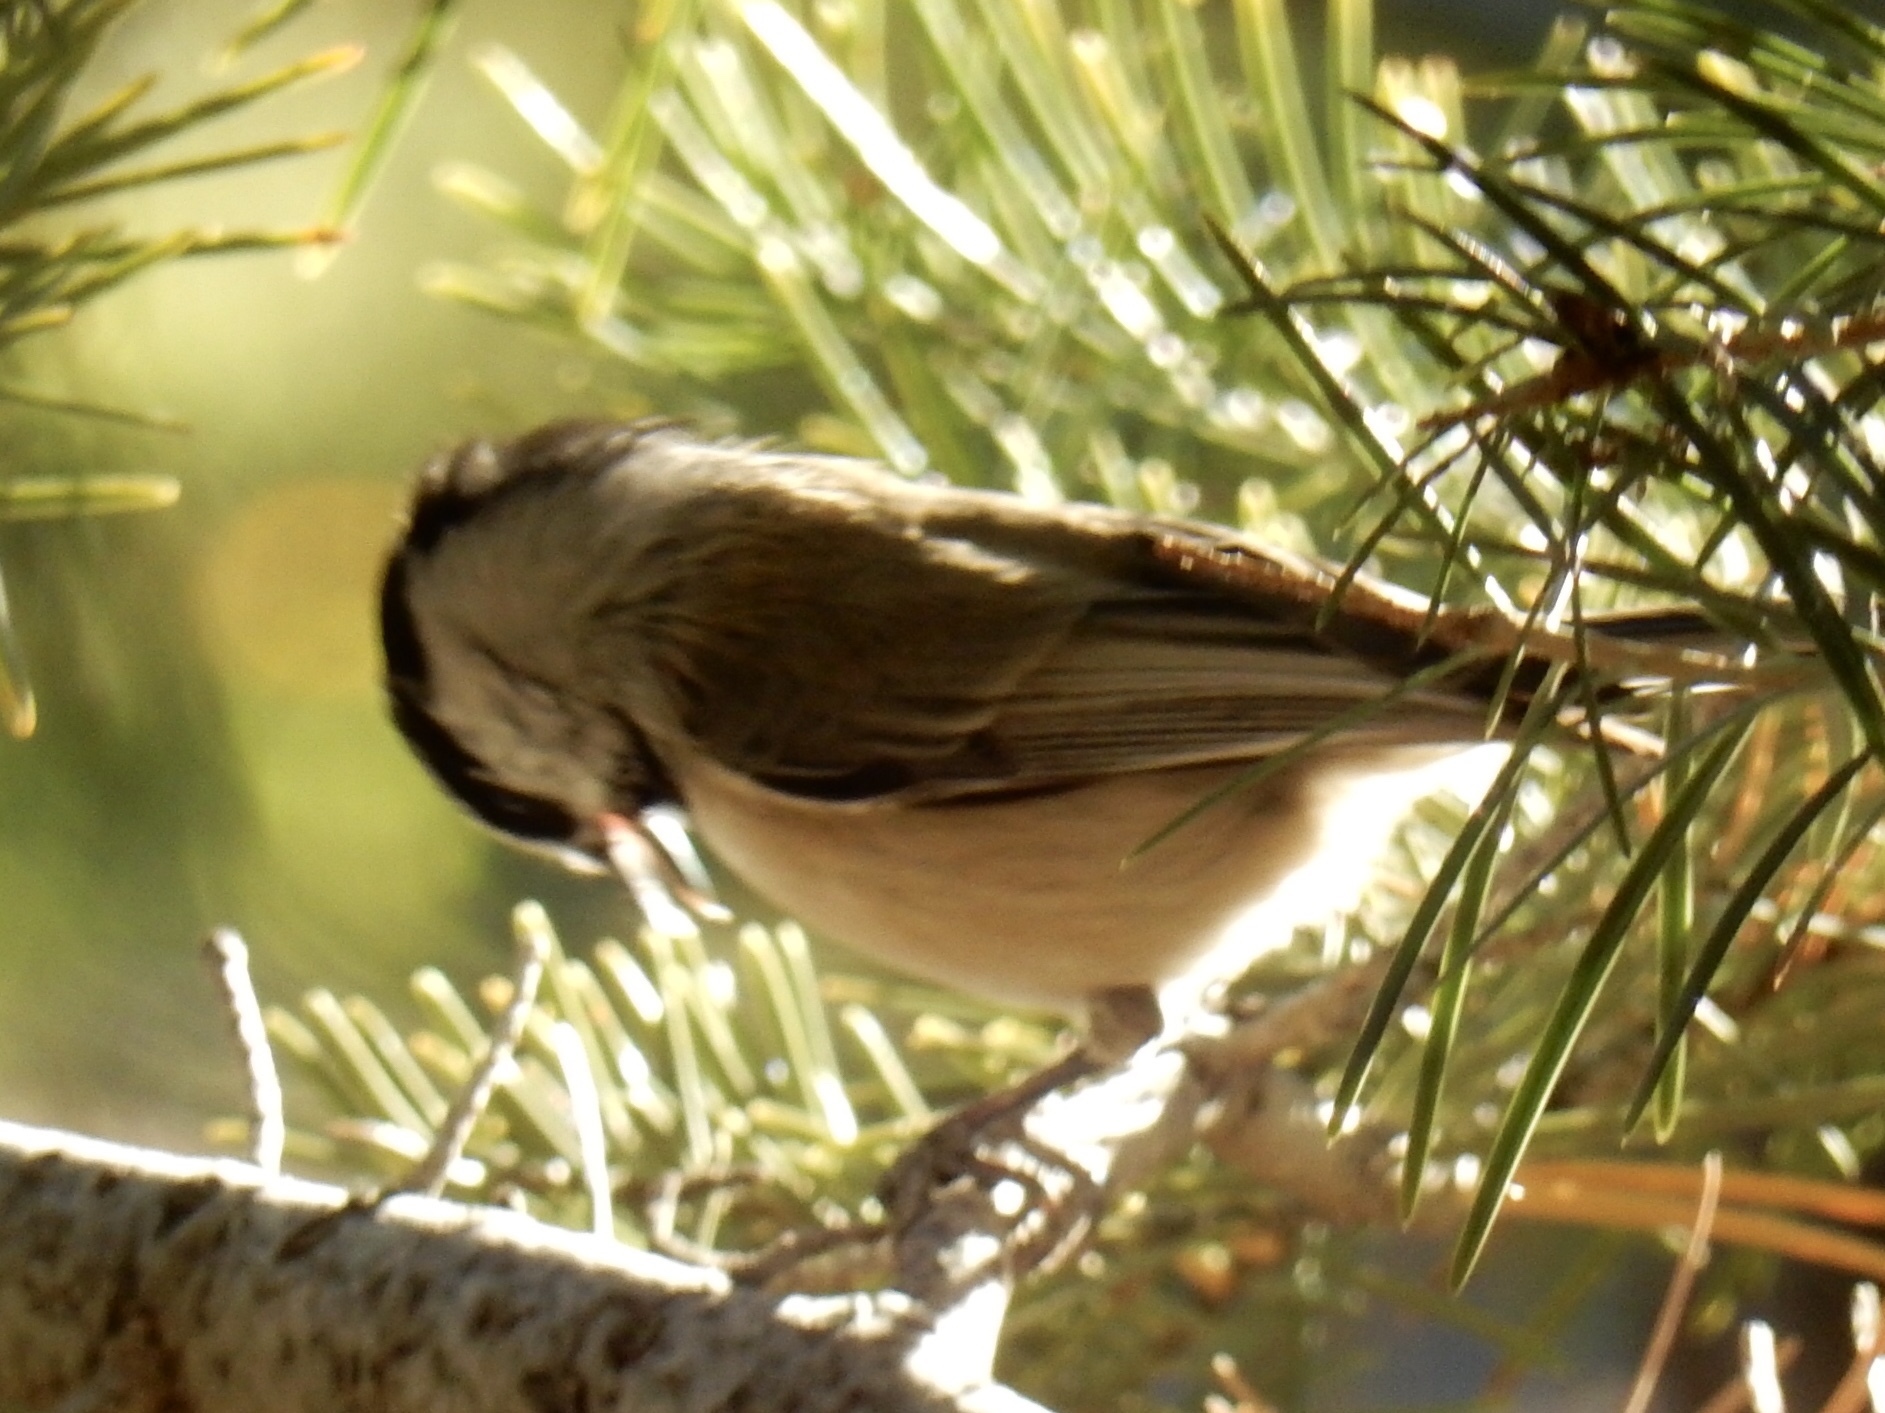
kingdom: Animalia
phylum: Chordata
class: Aves
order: Passeriformes
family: Paridae
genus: Poecile
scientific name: Poecile gambeli
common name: Mountain chickadee
